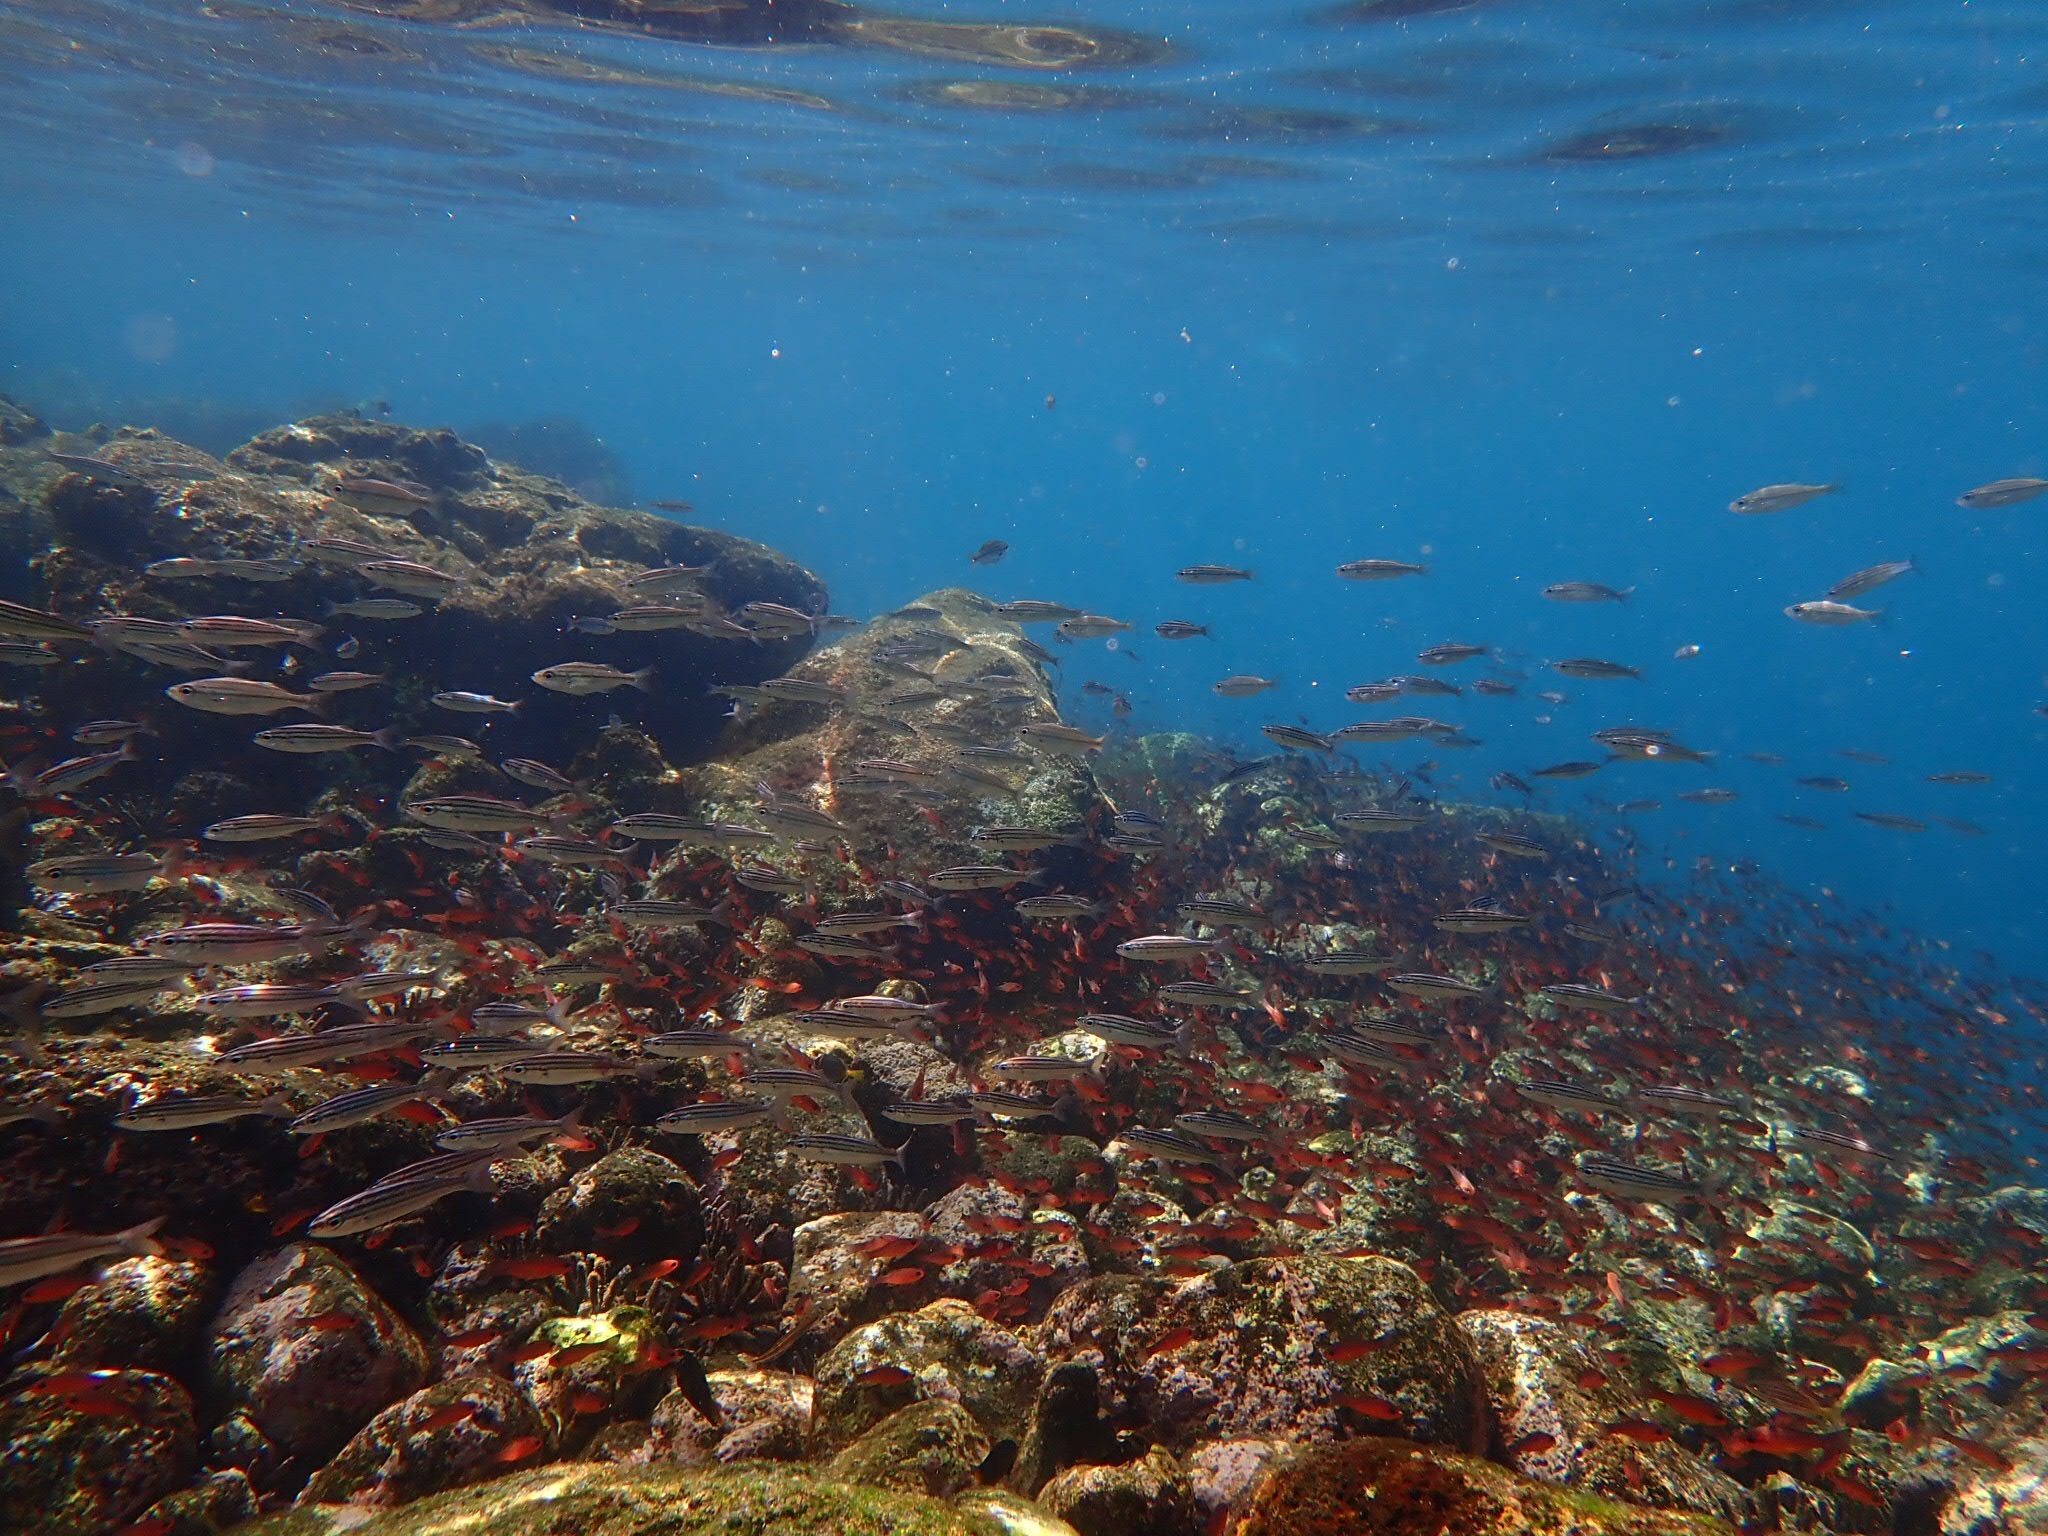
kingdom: Animalia
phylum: Chordata
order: Perciformes
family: Haemulidae
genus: Xenocys
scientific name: Xenocys jessiae
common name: Black-striped salema
